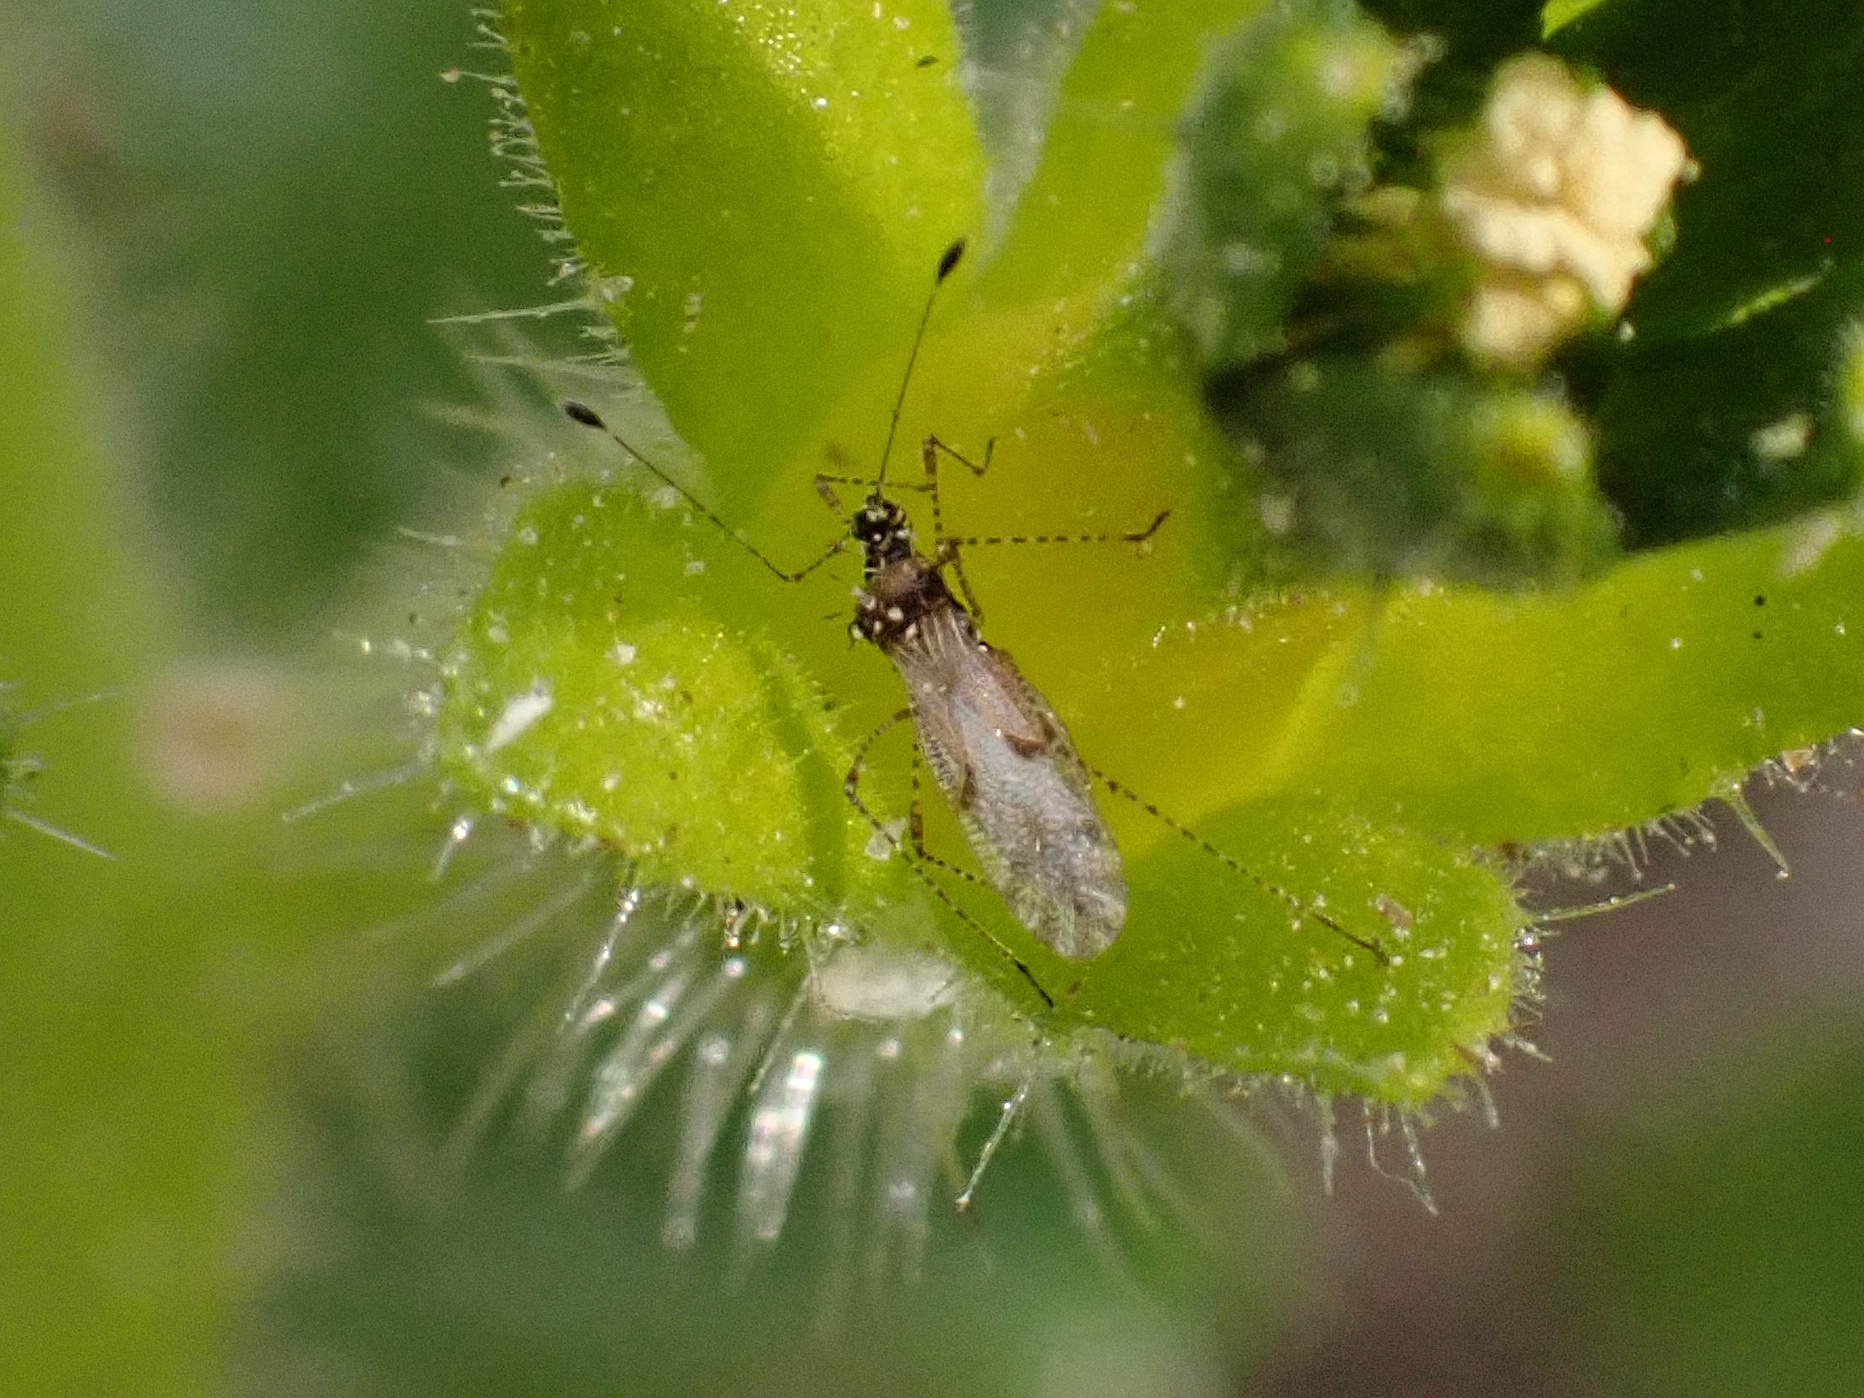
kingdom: Animalia
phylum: Arthropoda
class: Insecta
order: Hemiptera
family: Berytidae
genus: Pronotacantha
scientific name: Pronotacantha annulata
